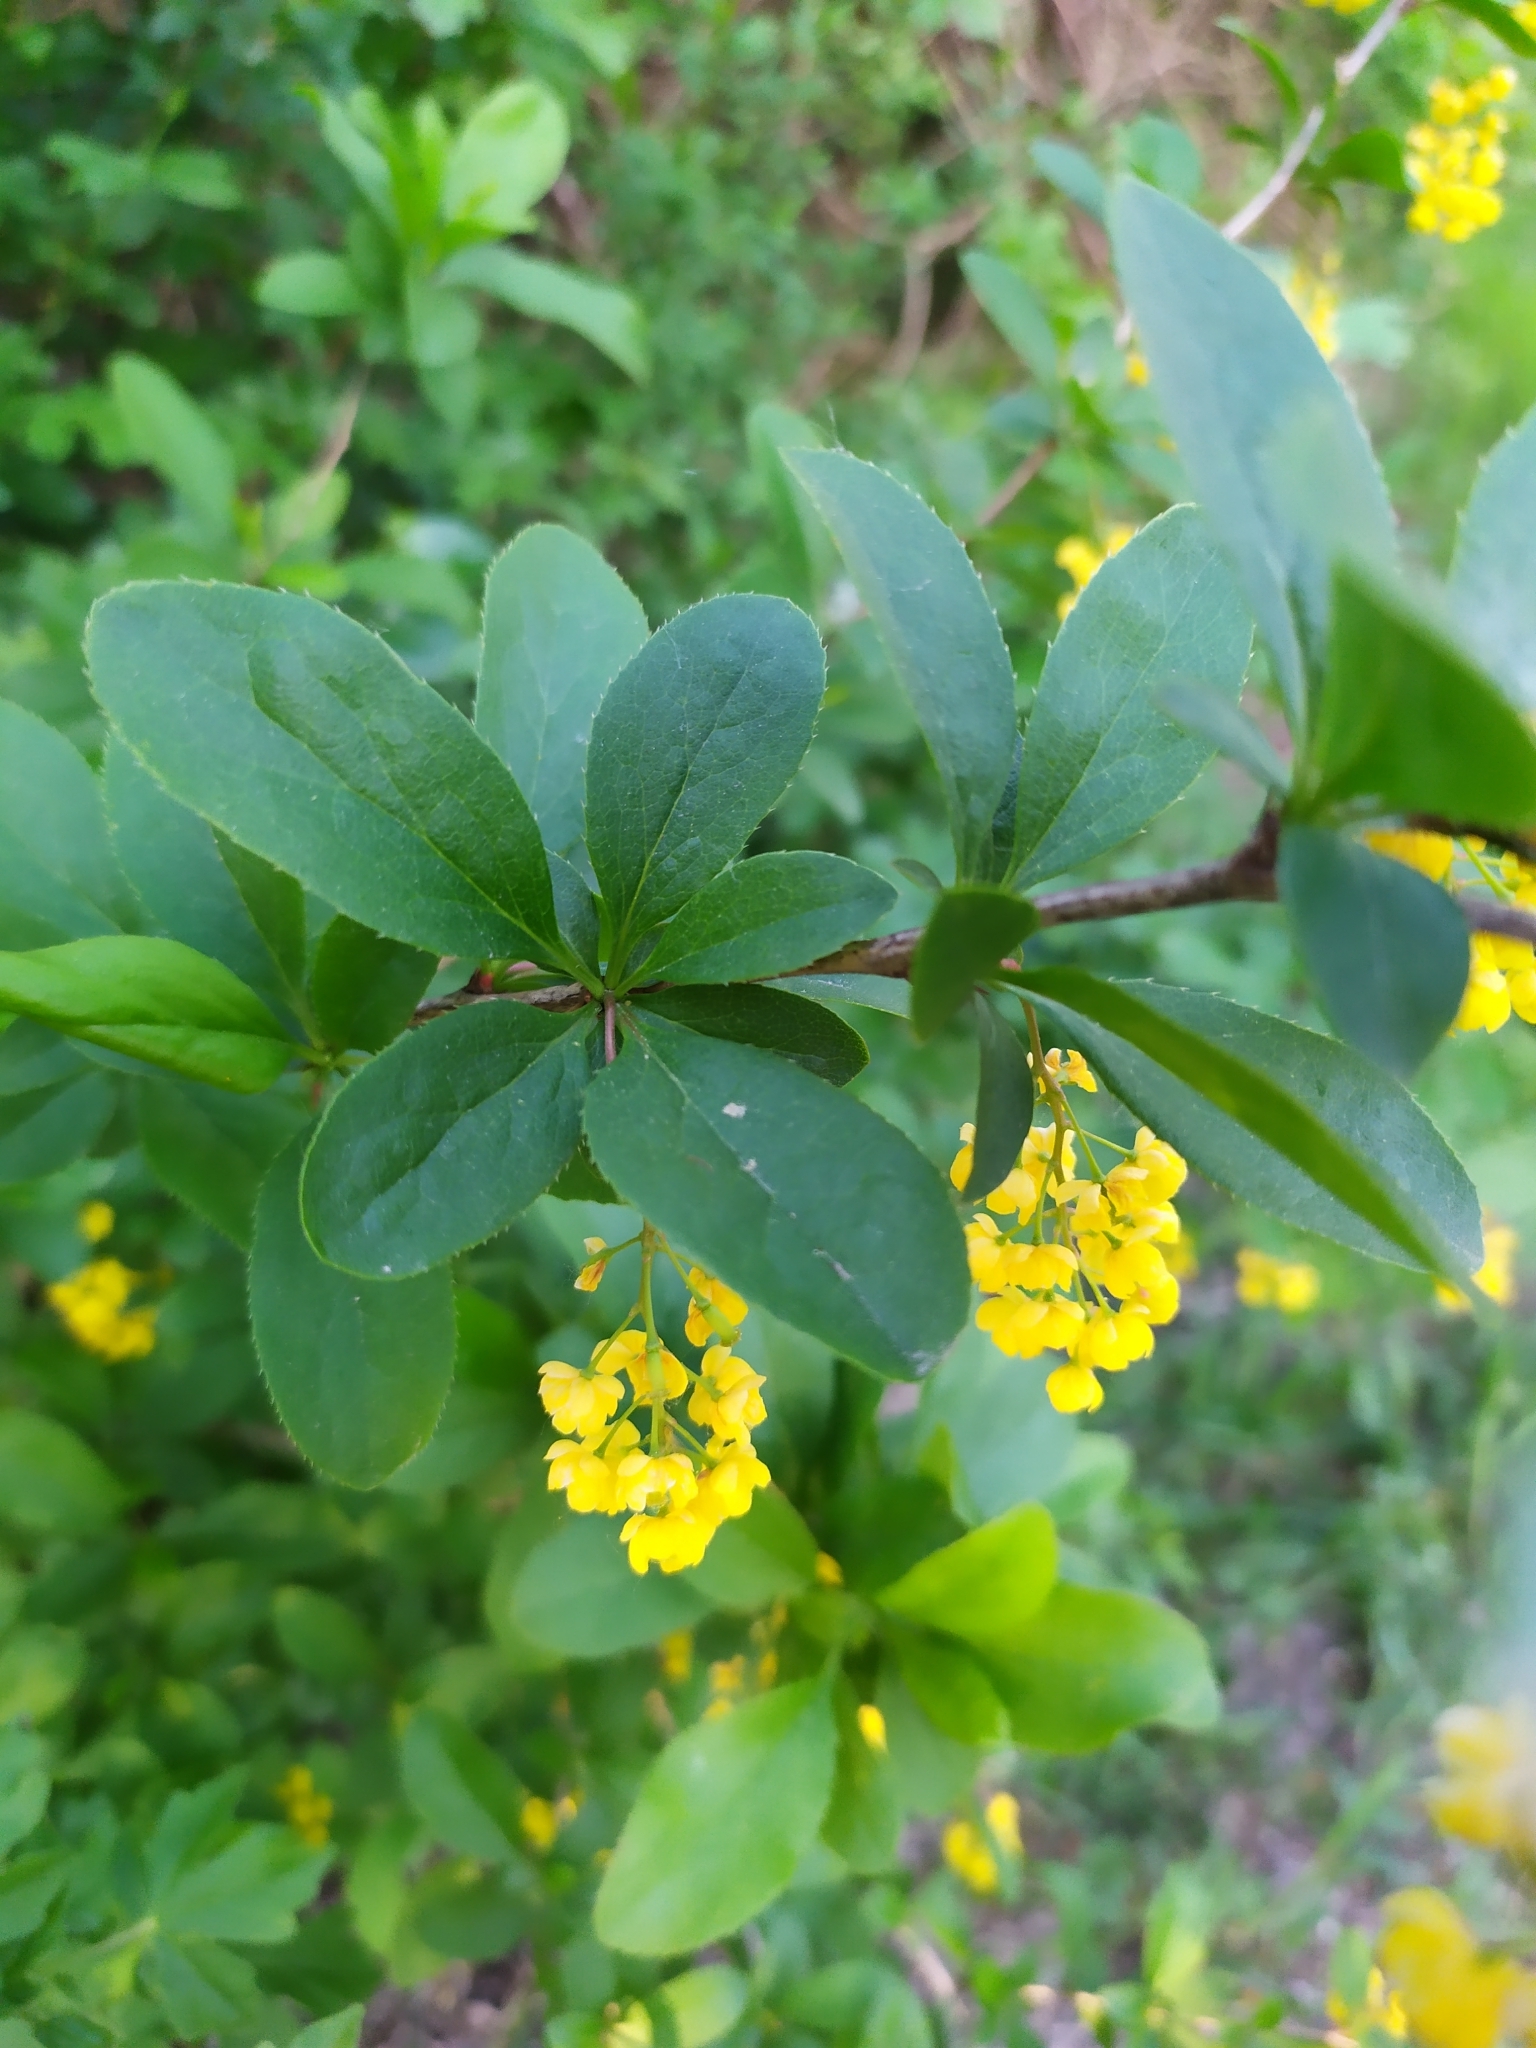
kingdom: Plantae
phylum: Tracheophyta
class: Magnoliopsida
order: Ranunculales
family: Berberidaceae
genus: Berberis
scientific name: Berberis vulgaris
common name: Barberry
